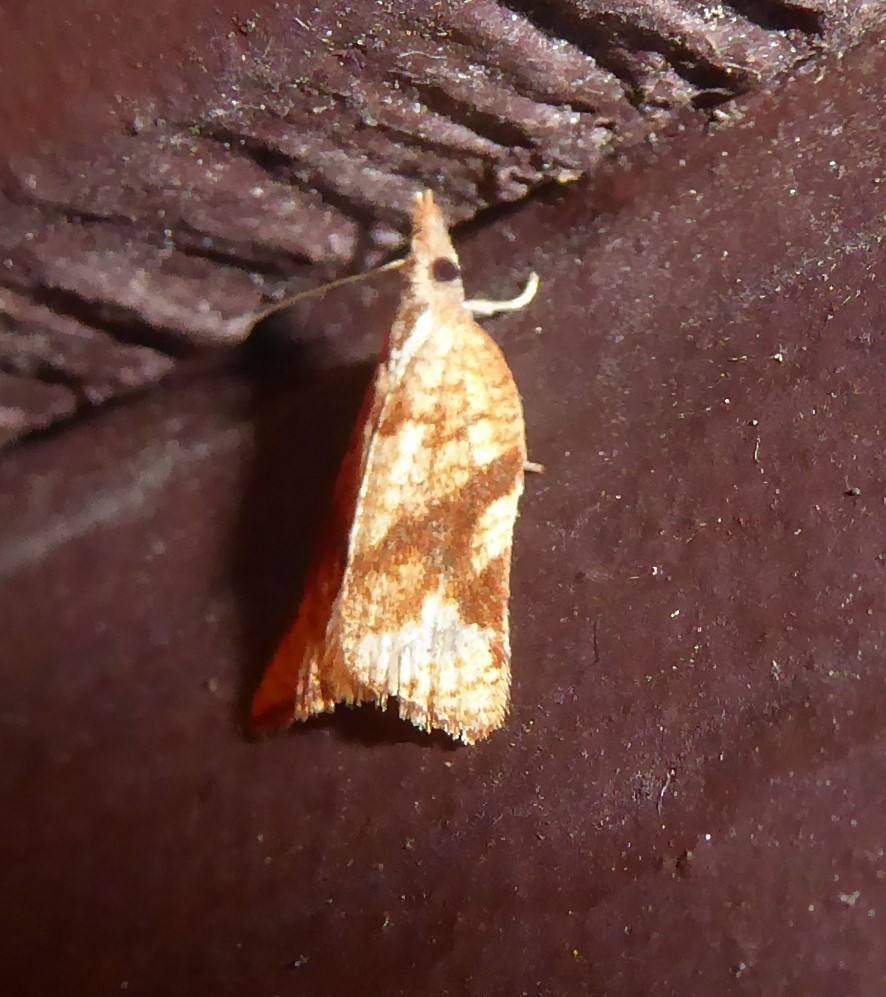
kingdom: Animalia
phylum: Arthropoda
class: Insecta
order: Lepidoptera
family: Tortricidae
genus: Catamacta
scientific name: Catamacta gavisana
